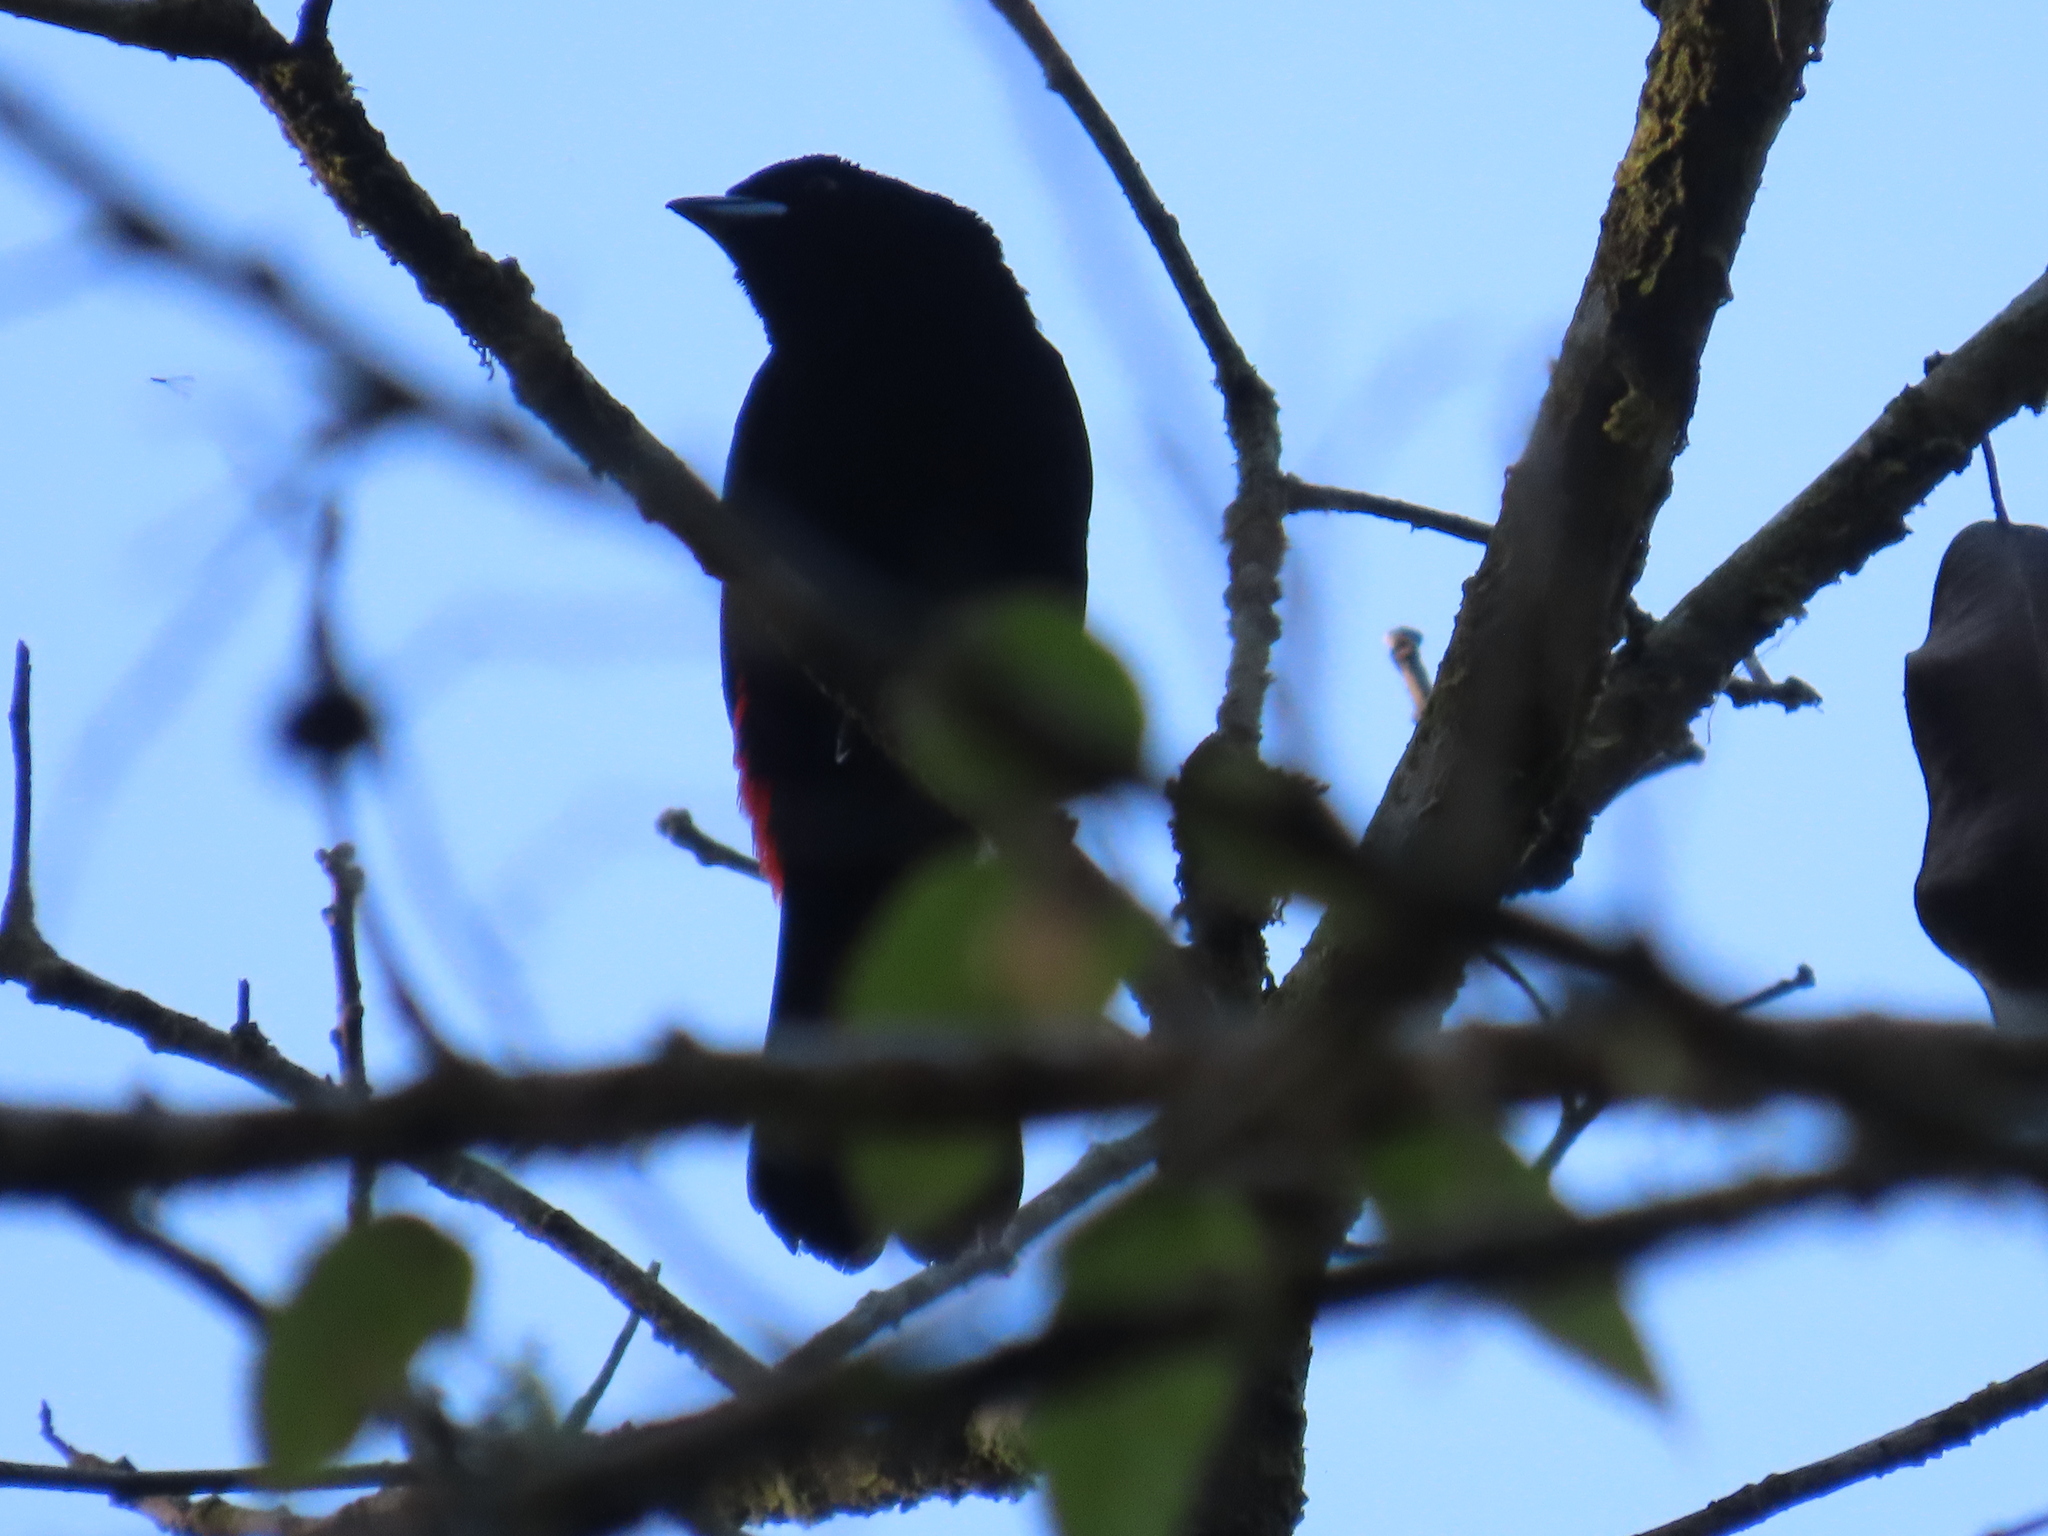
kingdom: Animalia
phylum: Chordata
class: Aves
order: Passeriformes
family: Thraupidae
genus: Ramphocelus
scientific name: Ramphocelus passerinii
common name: Passerini's tanager
